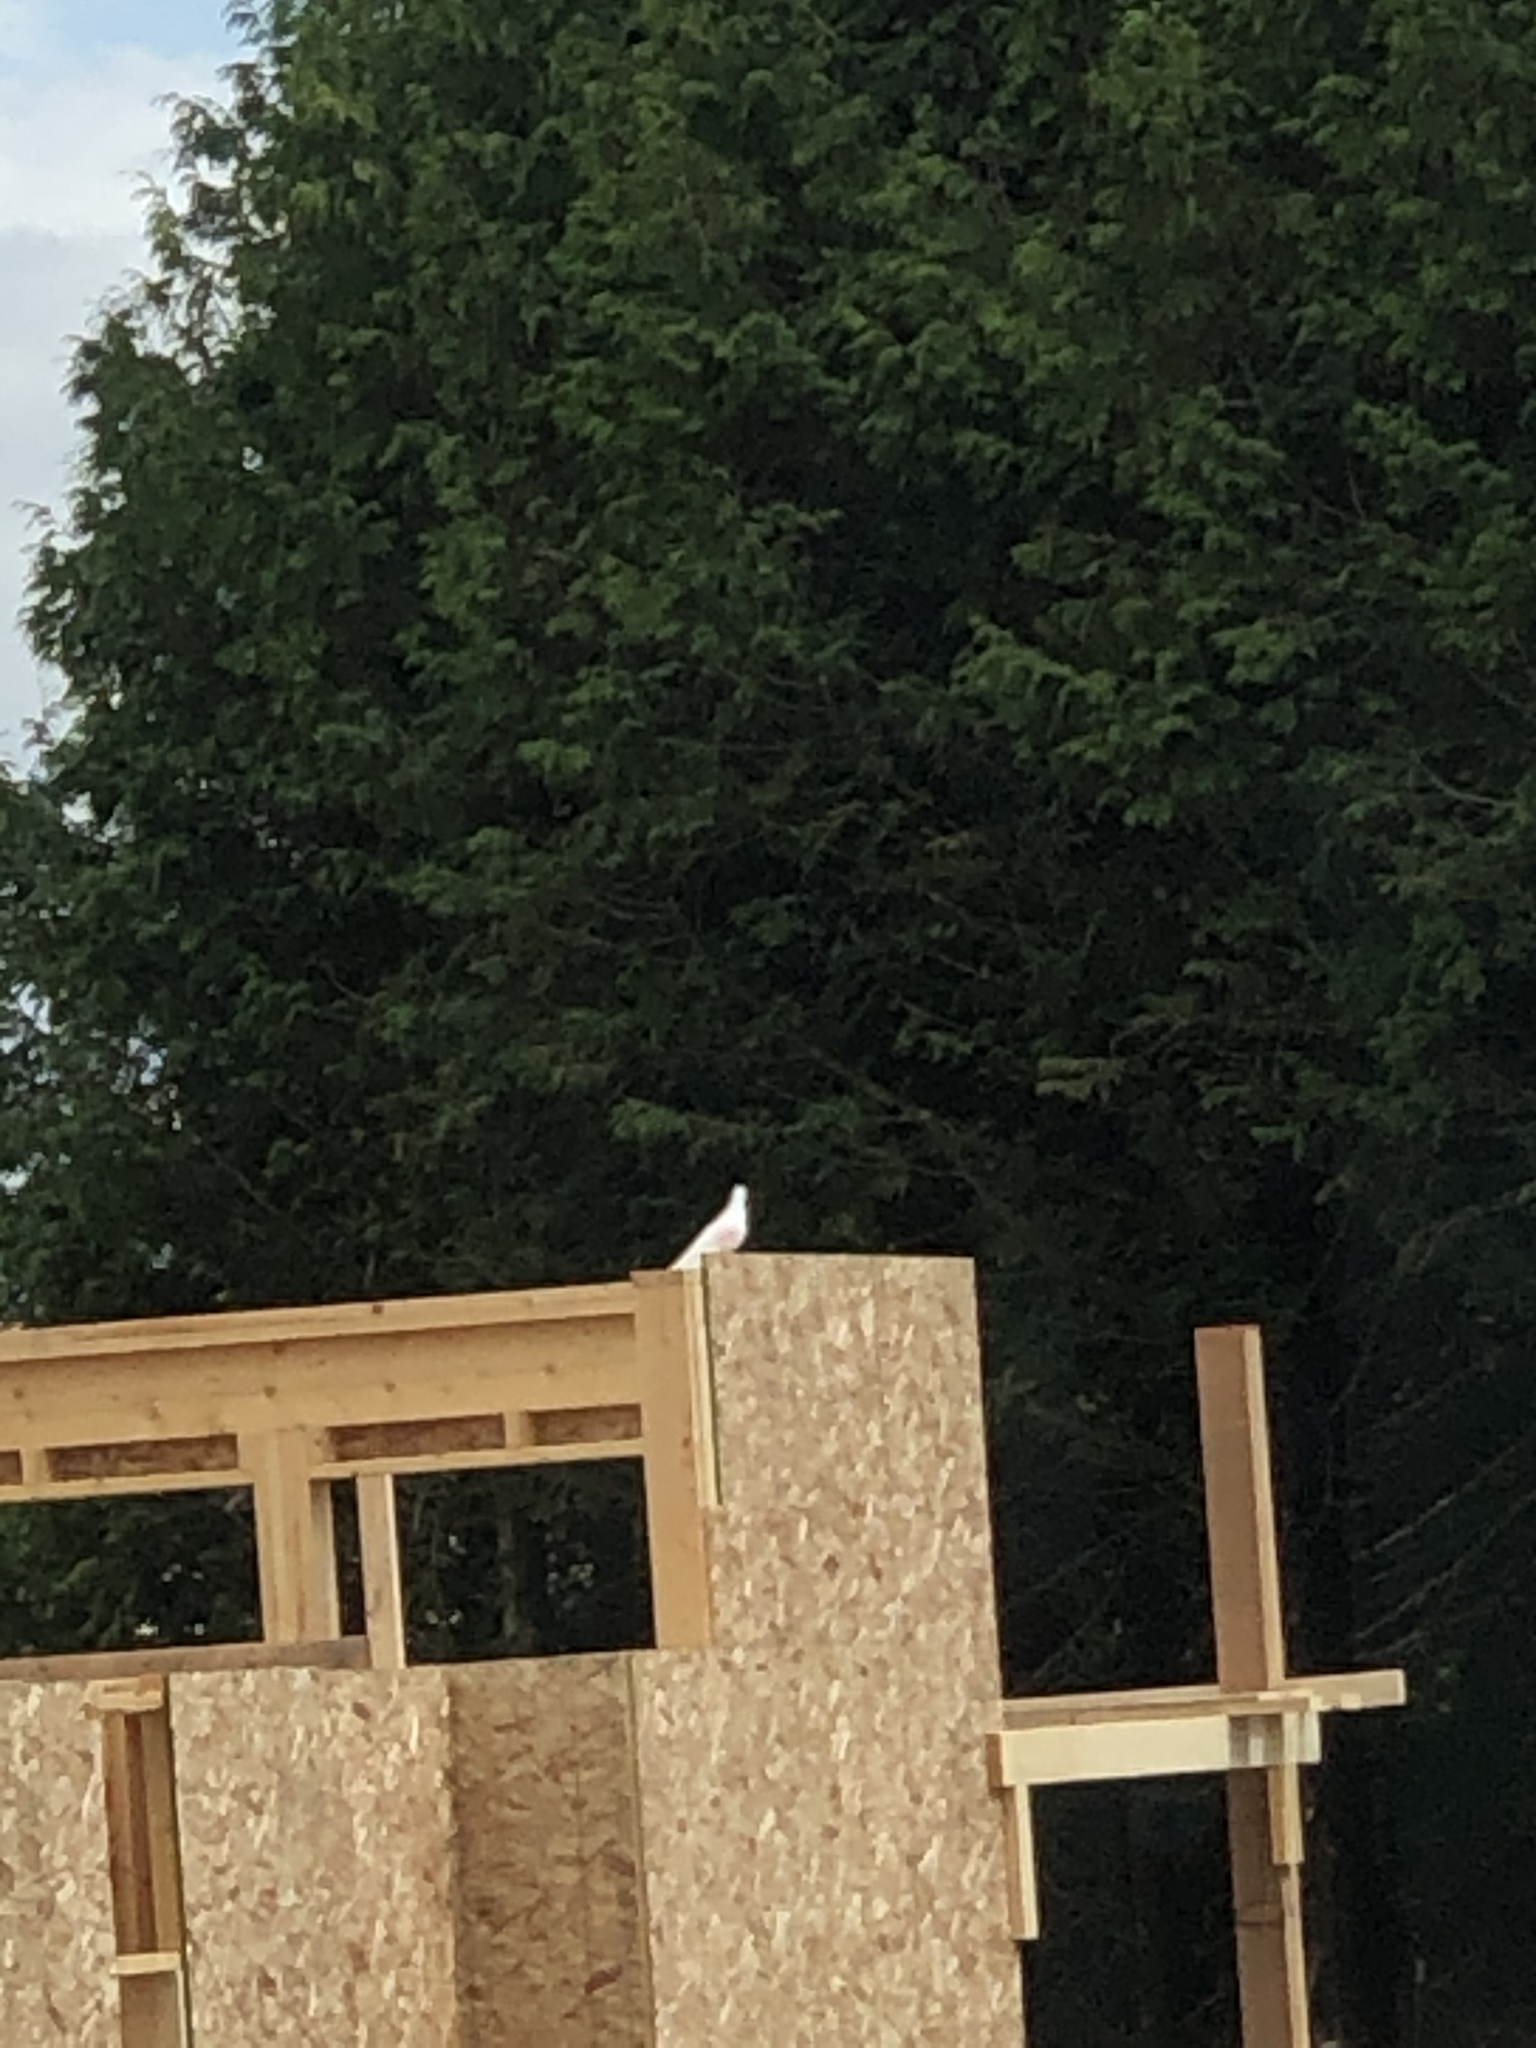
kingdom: Animalia
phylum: Chordata
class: Aves
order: Columbiformes
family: Columbidae
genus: Columba
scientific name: Columba livia
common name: Rock pigeon
